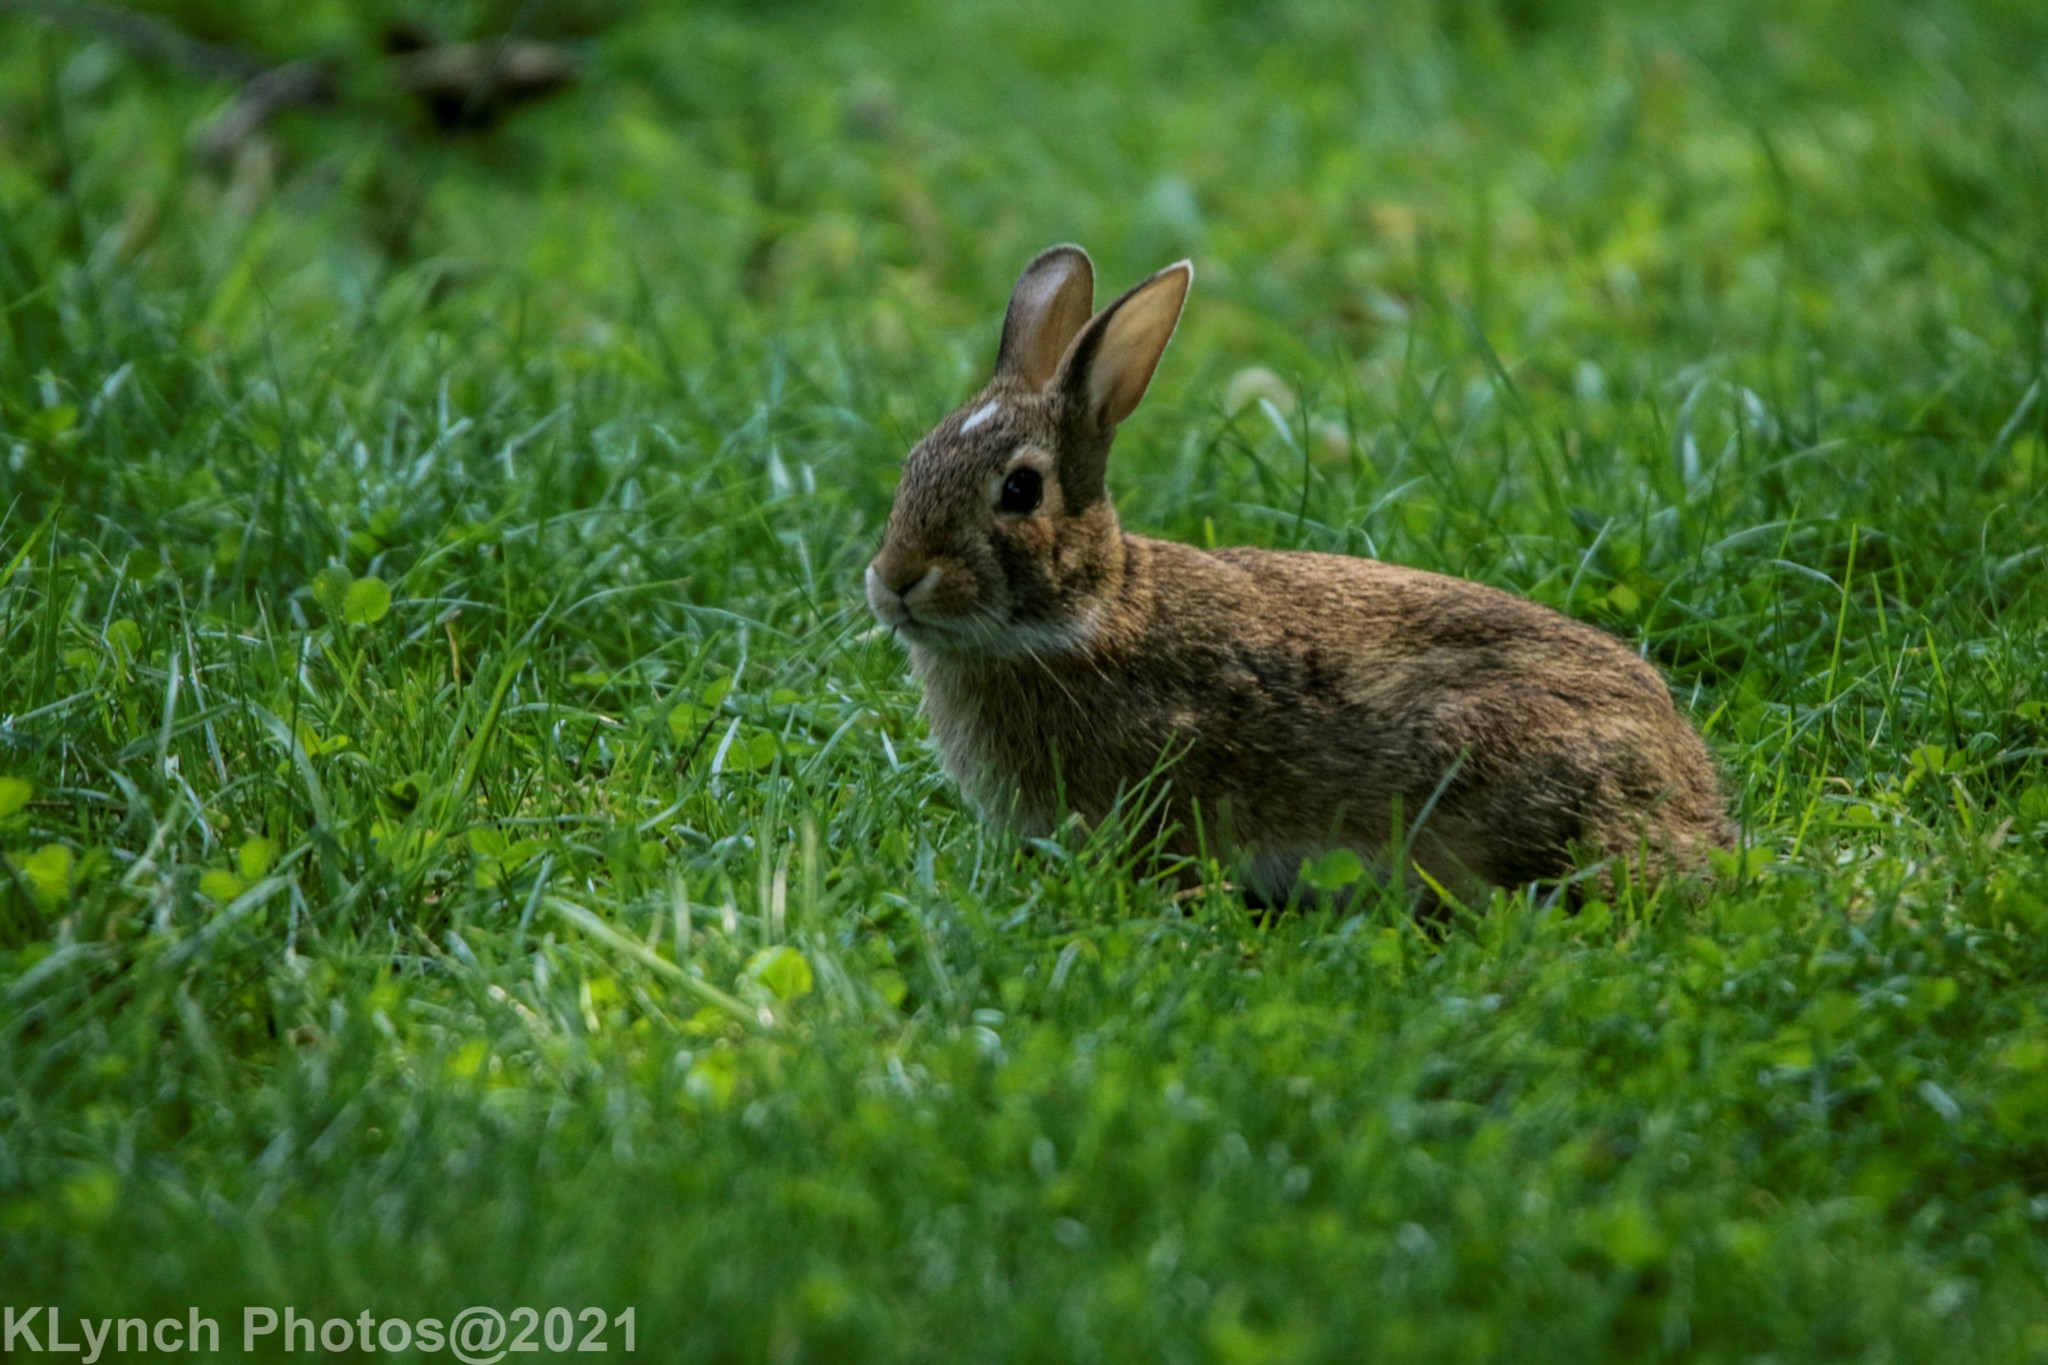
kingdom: Animalia
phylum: Chordata
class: Mammalia
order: Lagomorpha
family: Leporidae
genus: Sylvilagus
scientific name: Sylvilagus floridanus
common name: Eastern cottontail
